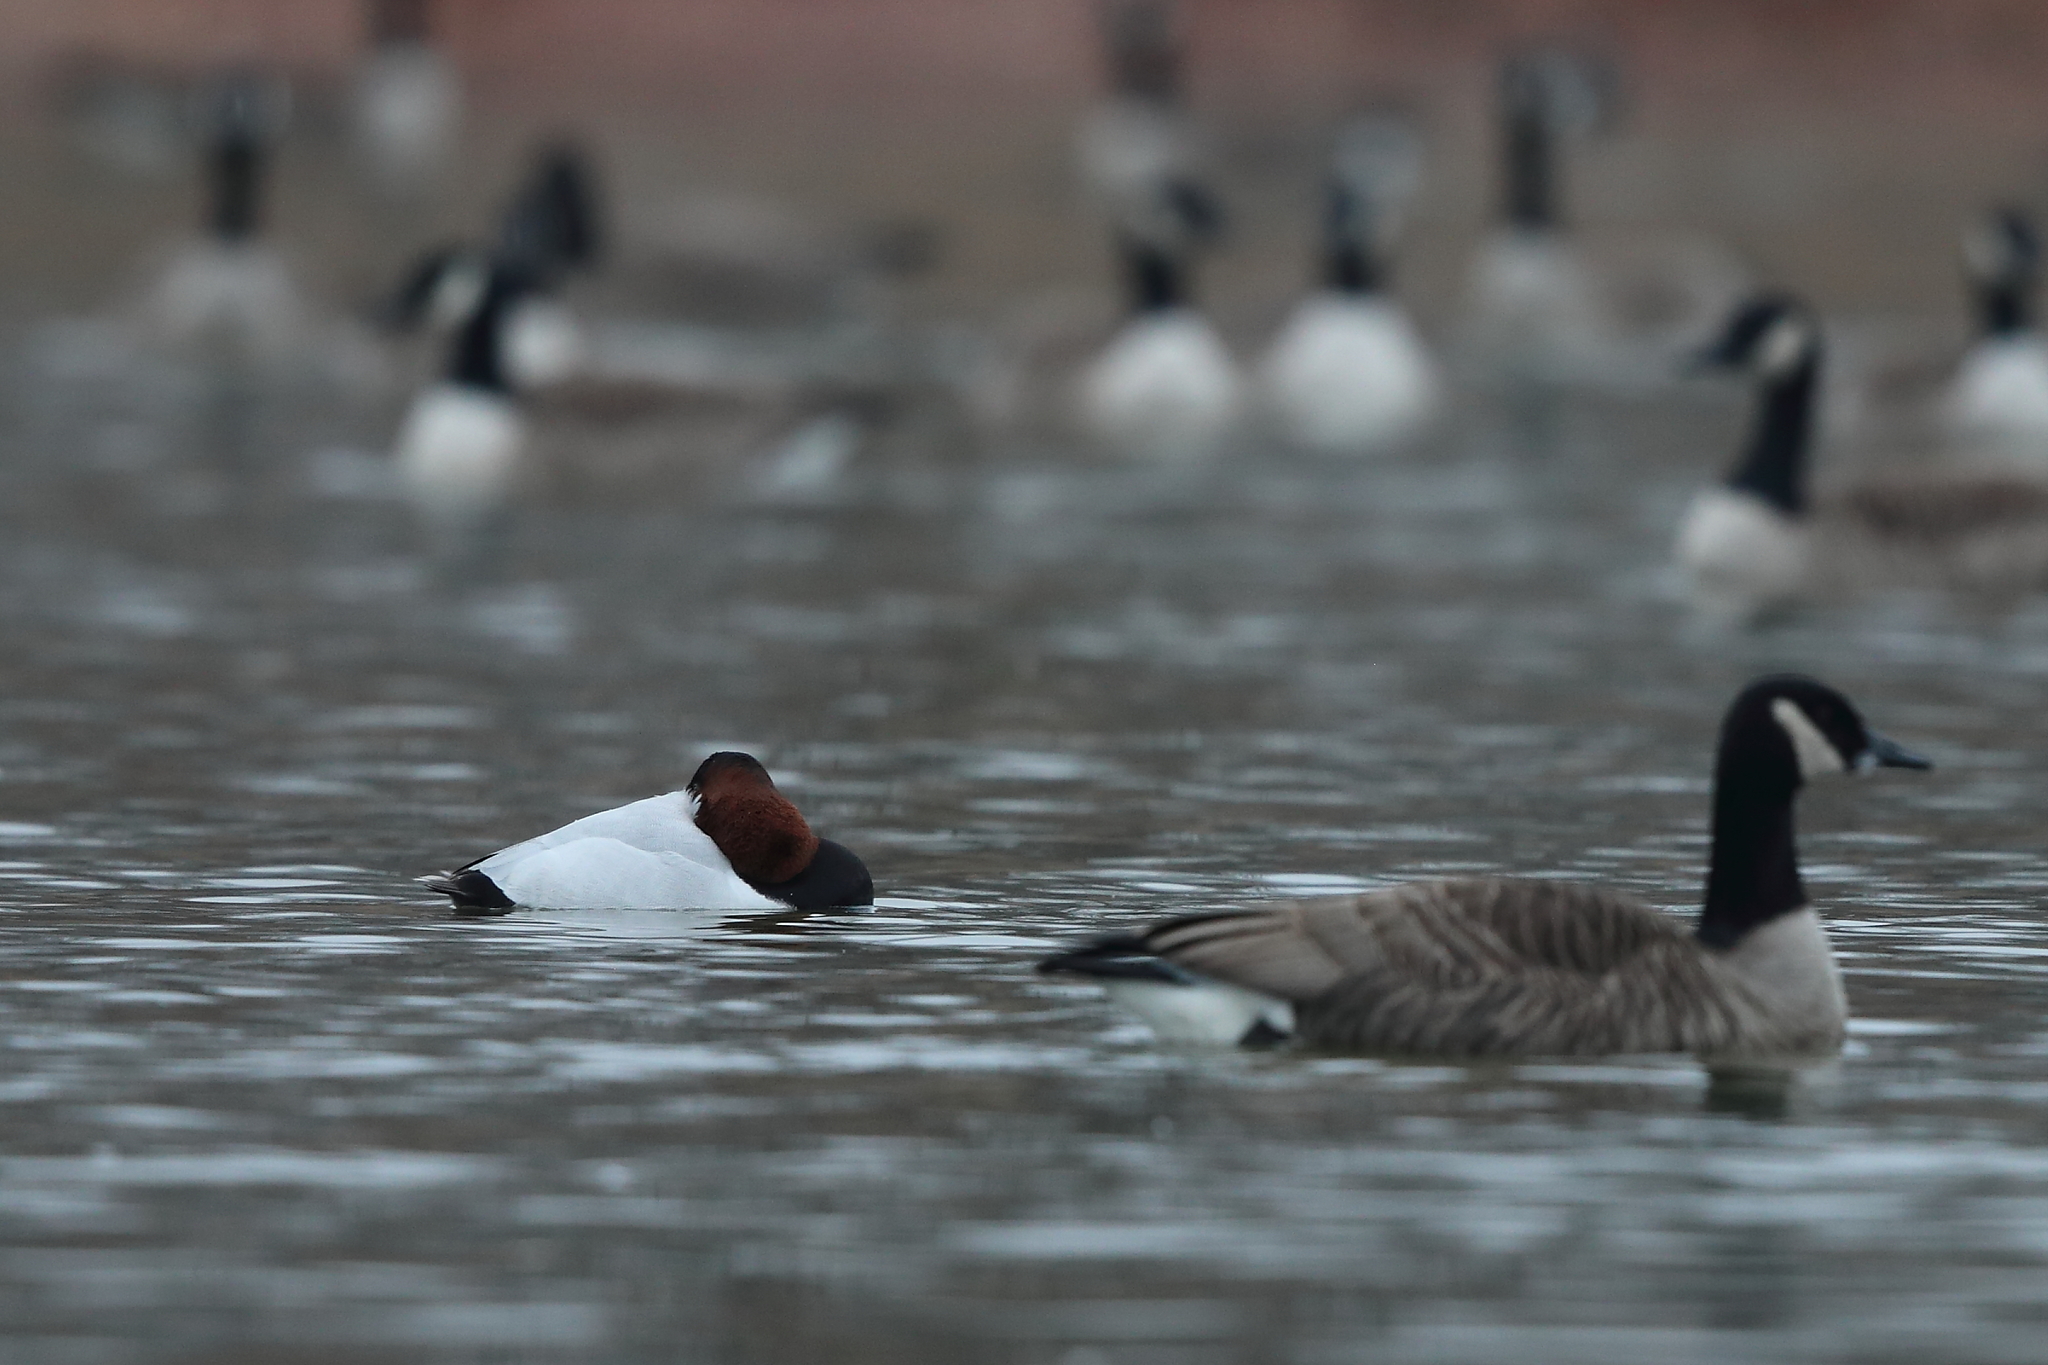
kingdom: Animalia
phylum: Chordata
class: Aves
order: Anseriformes
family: Anatidae
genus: Aythya
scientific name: Aythya valisineria
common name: Canvasback
